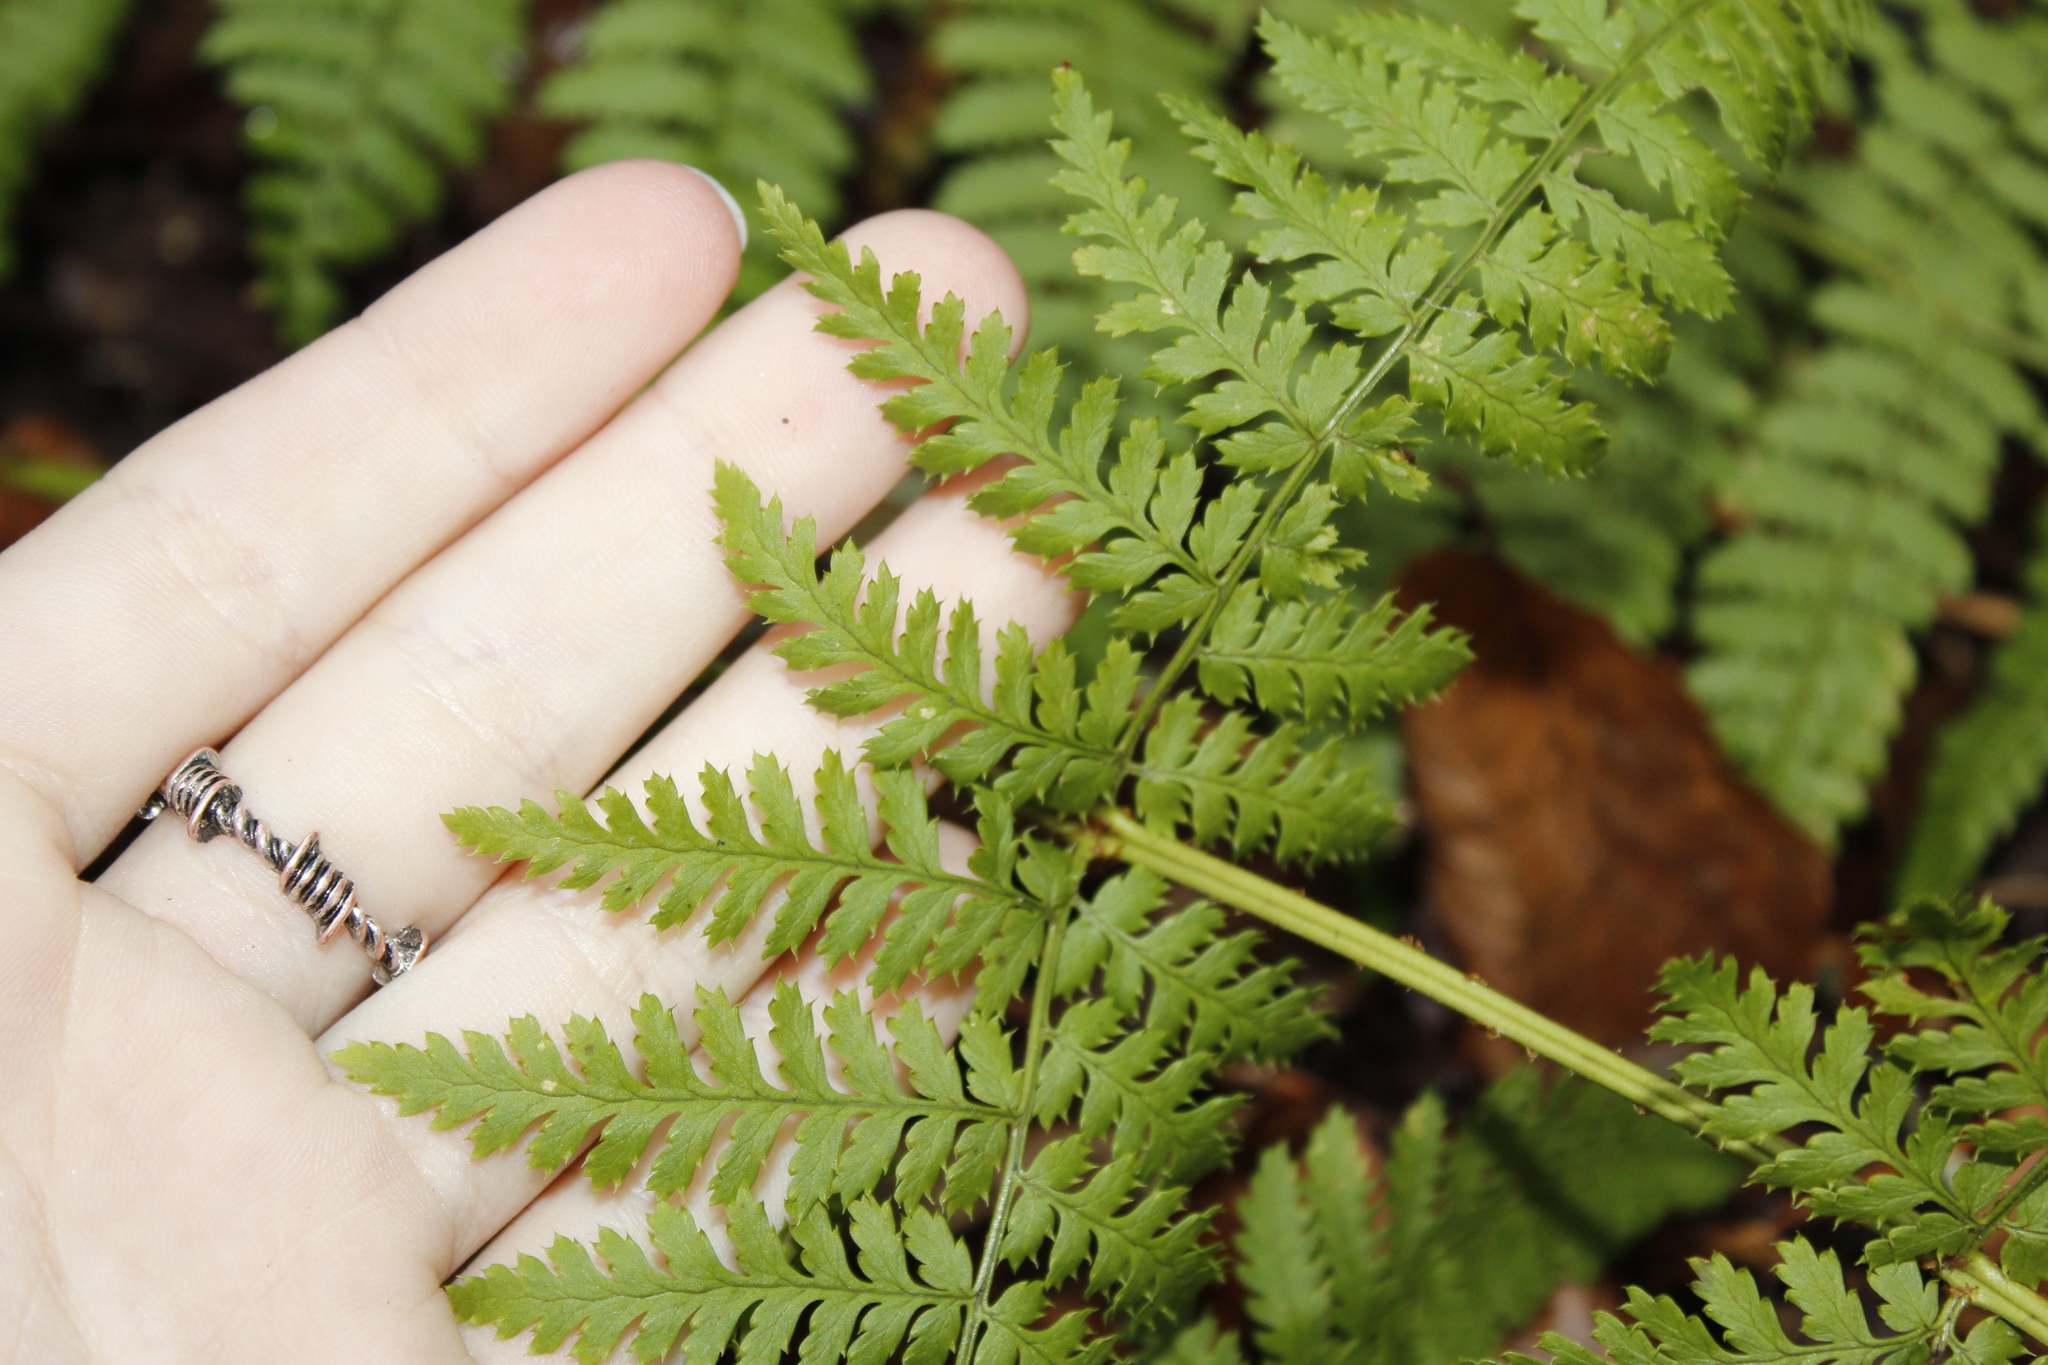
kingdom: Plantae
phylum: Tracheophyta
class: Polypodiopsida
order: Polypodiales
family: Dryopteridaceae
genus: Dryopteris
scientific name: Dryopteris intermedia
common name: Evergreen wood fern
